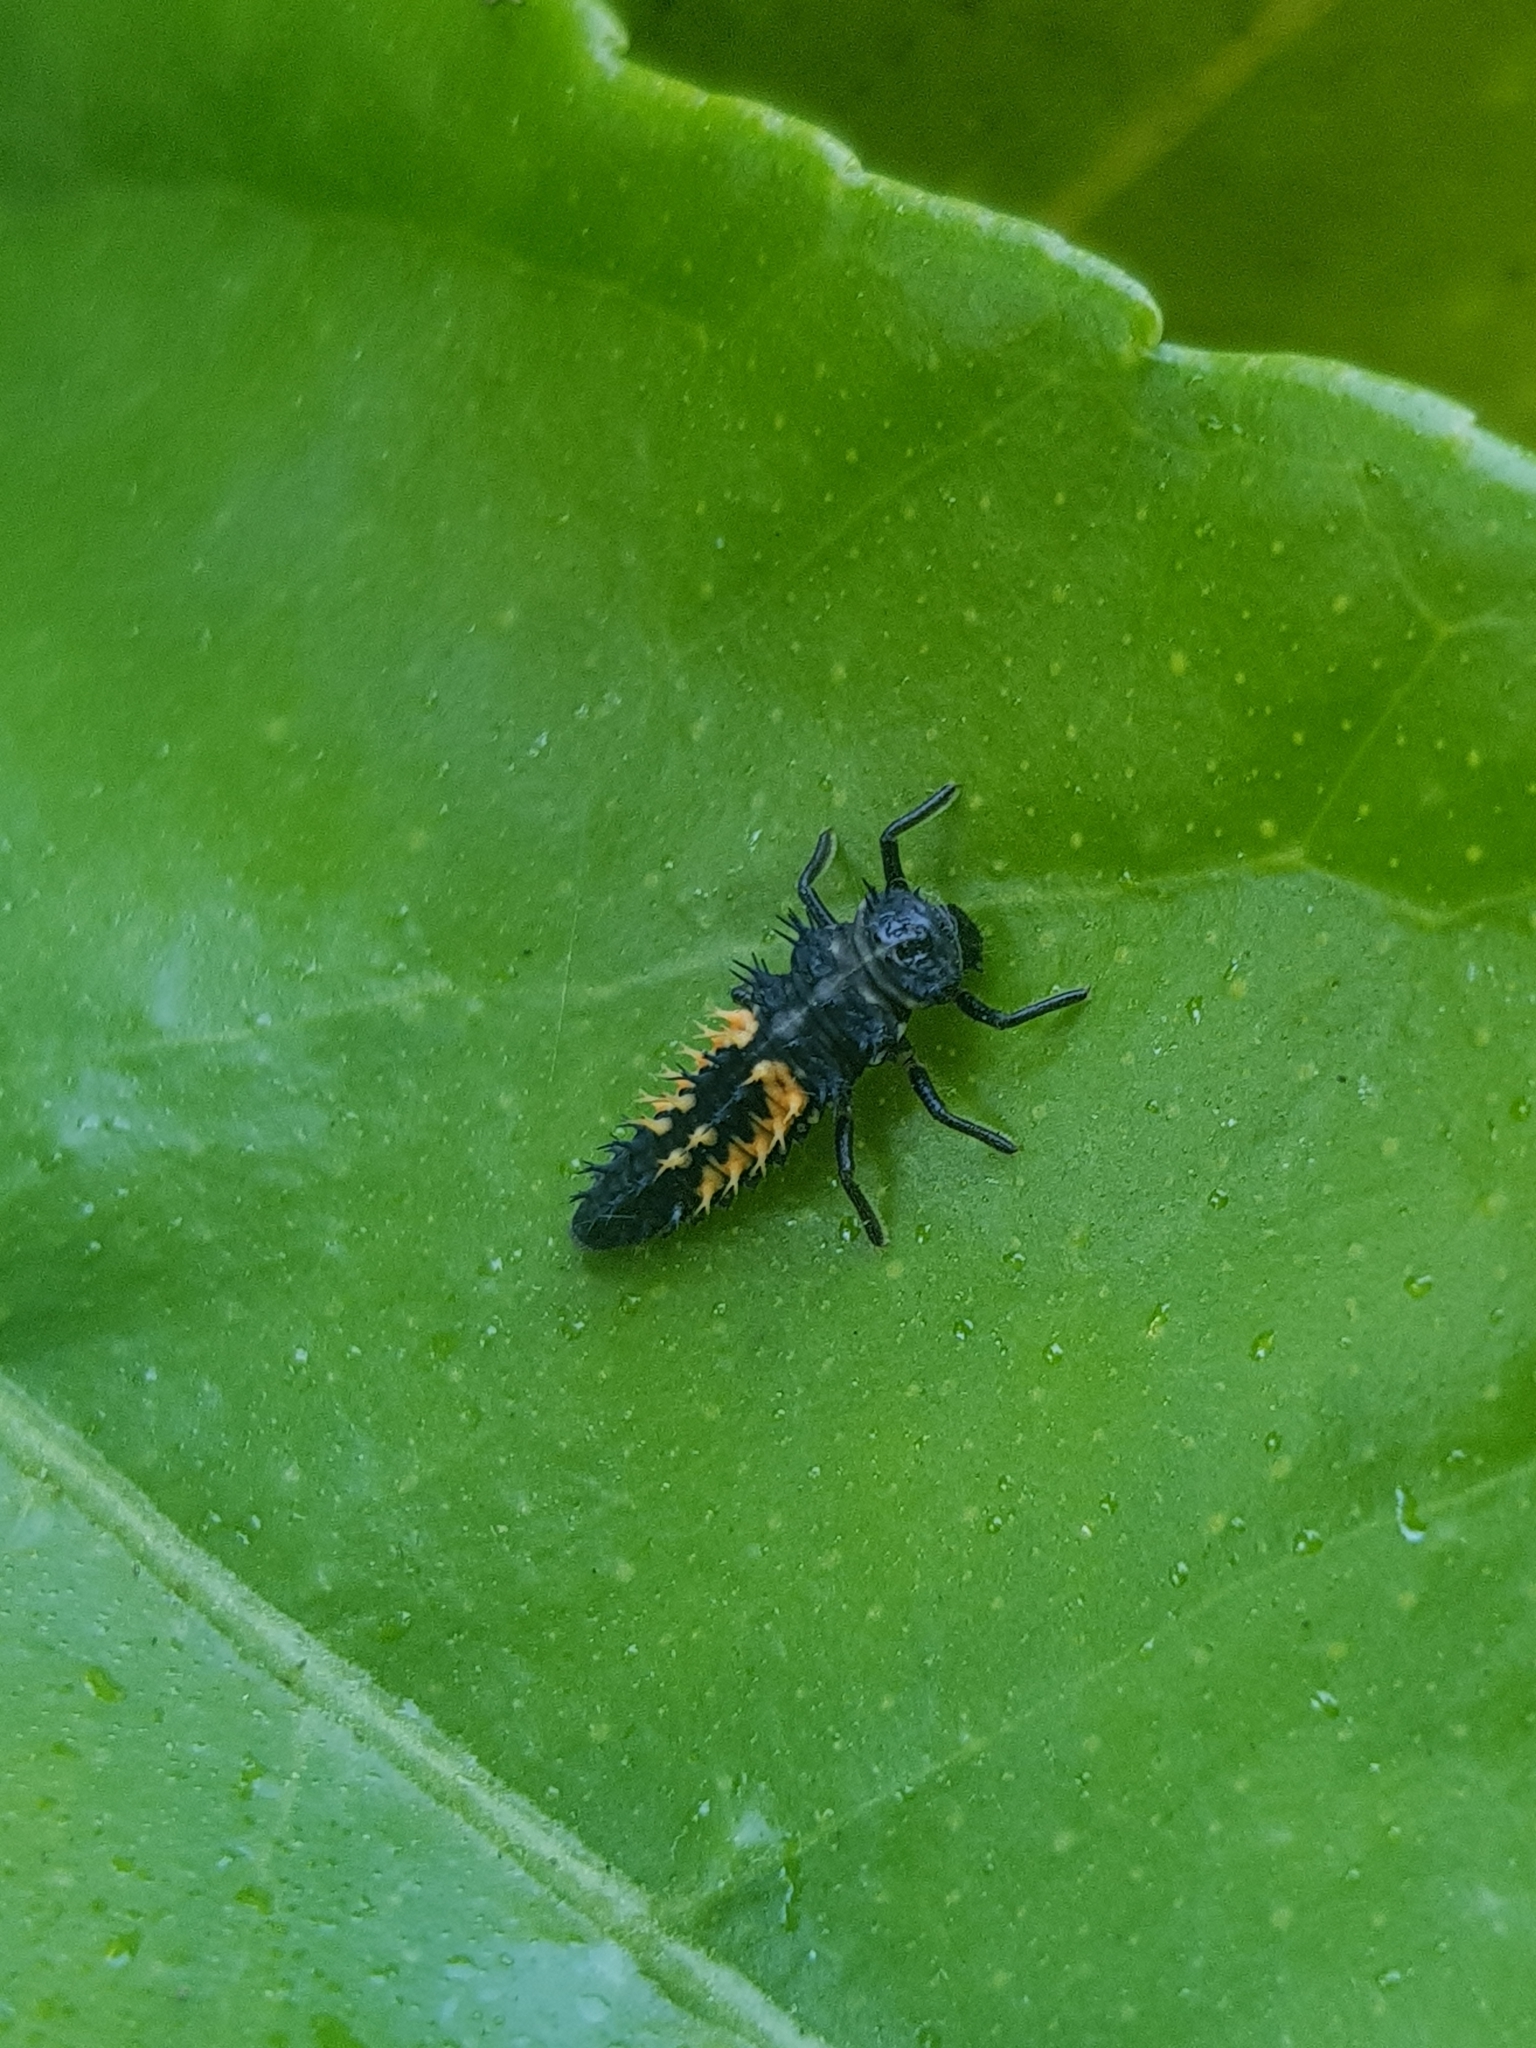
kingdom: Animalia
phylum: Arthropoda
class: Insecta
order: Coleoptera
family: Coccinellidae
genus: Harmonia
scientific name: Harmonia axyridis
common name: Harlequin ladybird
